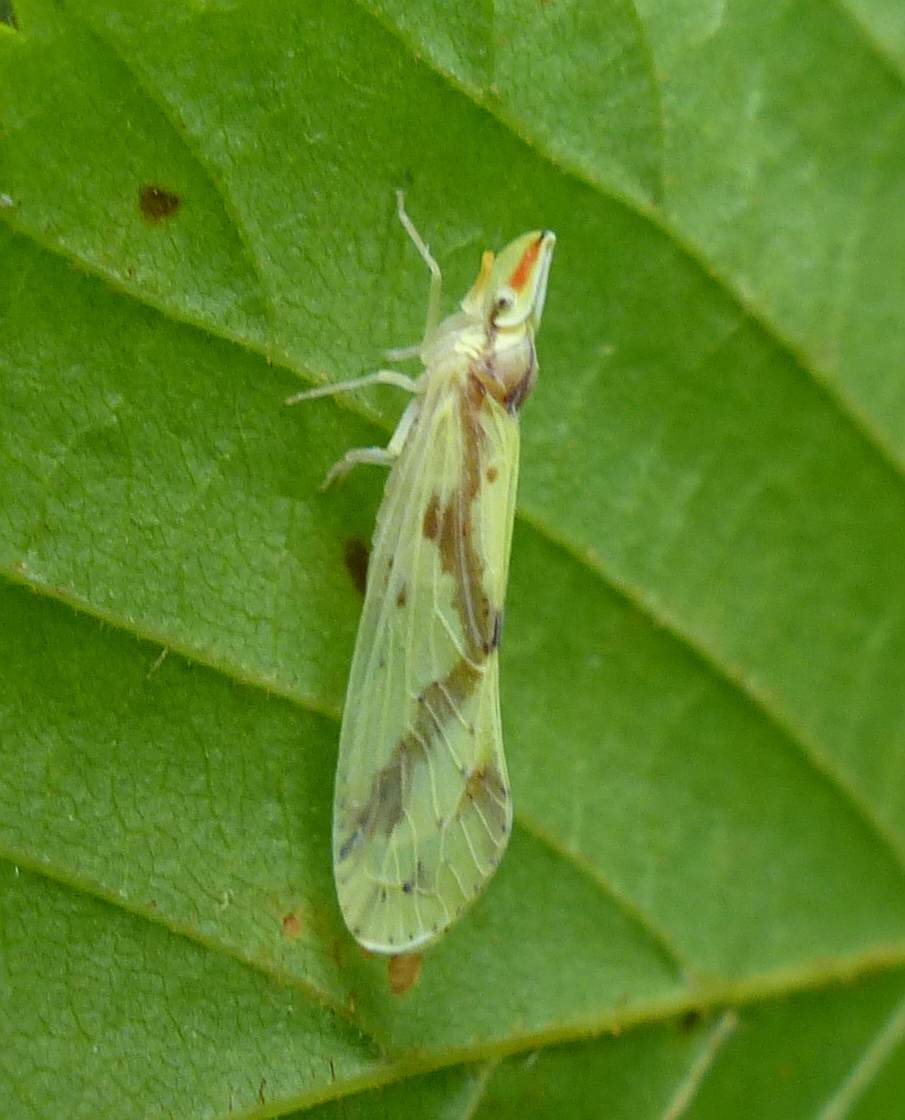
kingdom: Animalia
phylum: Arthropoda
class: Insecta
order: Hemiptera
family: Derbidae
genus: Otiocerus
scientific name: Otiocerus wolfii
